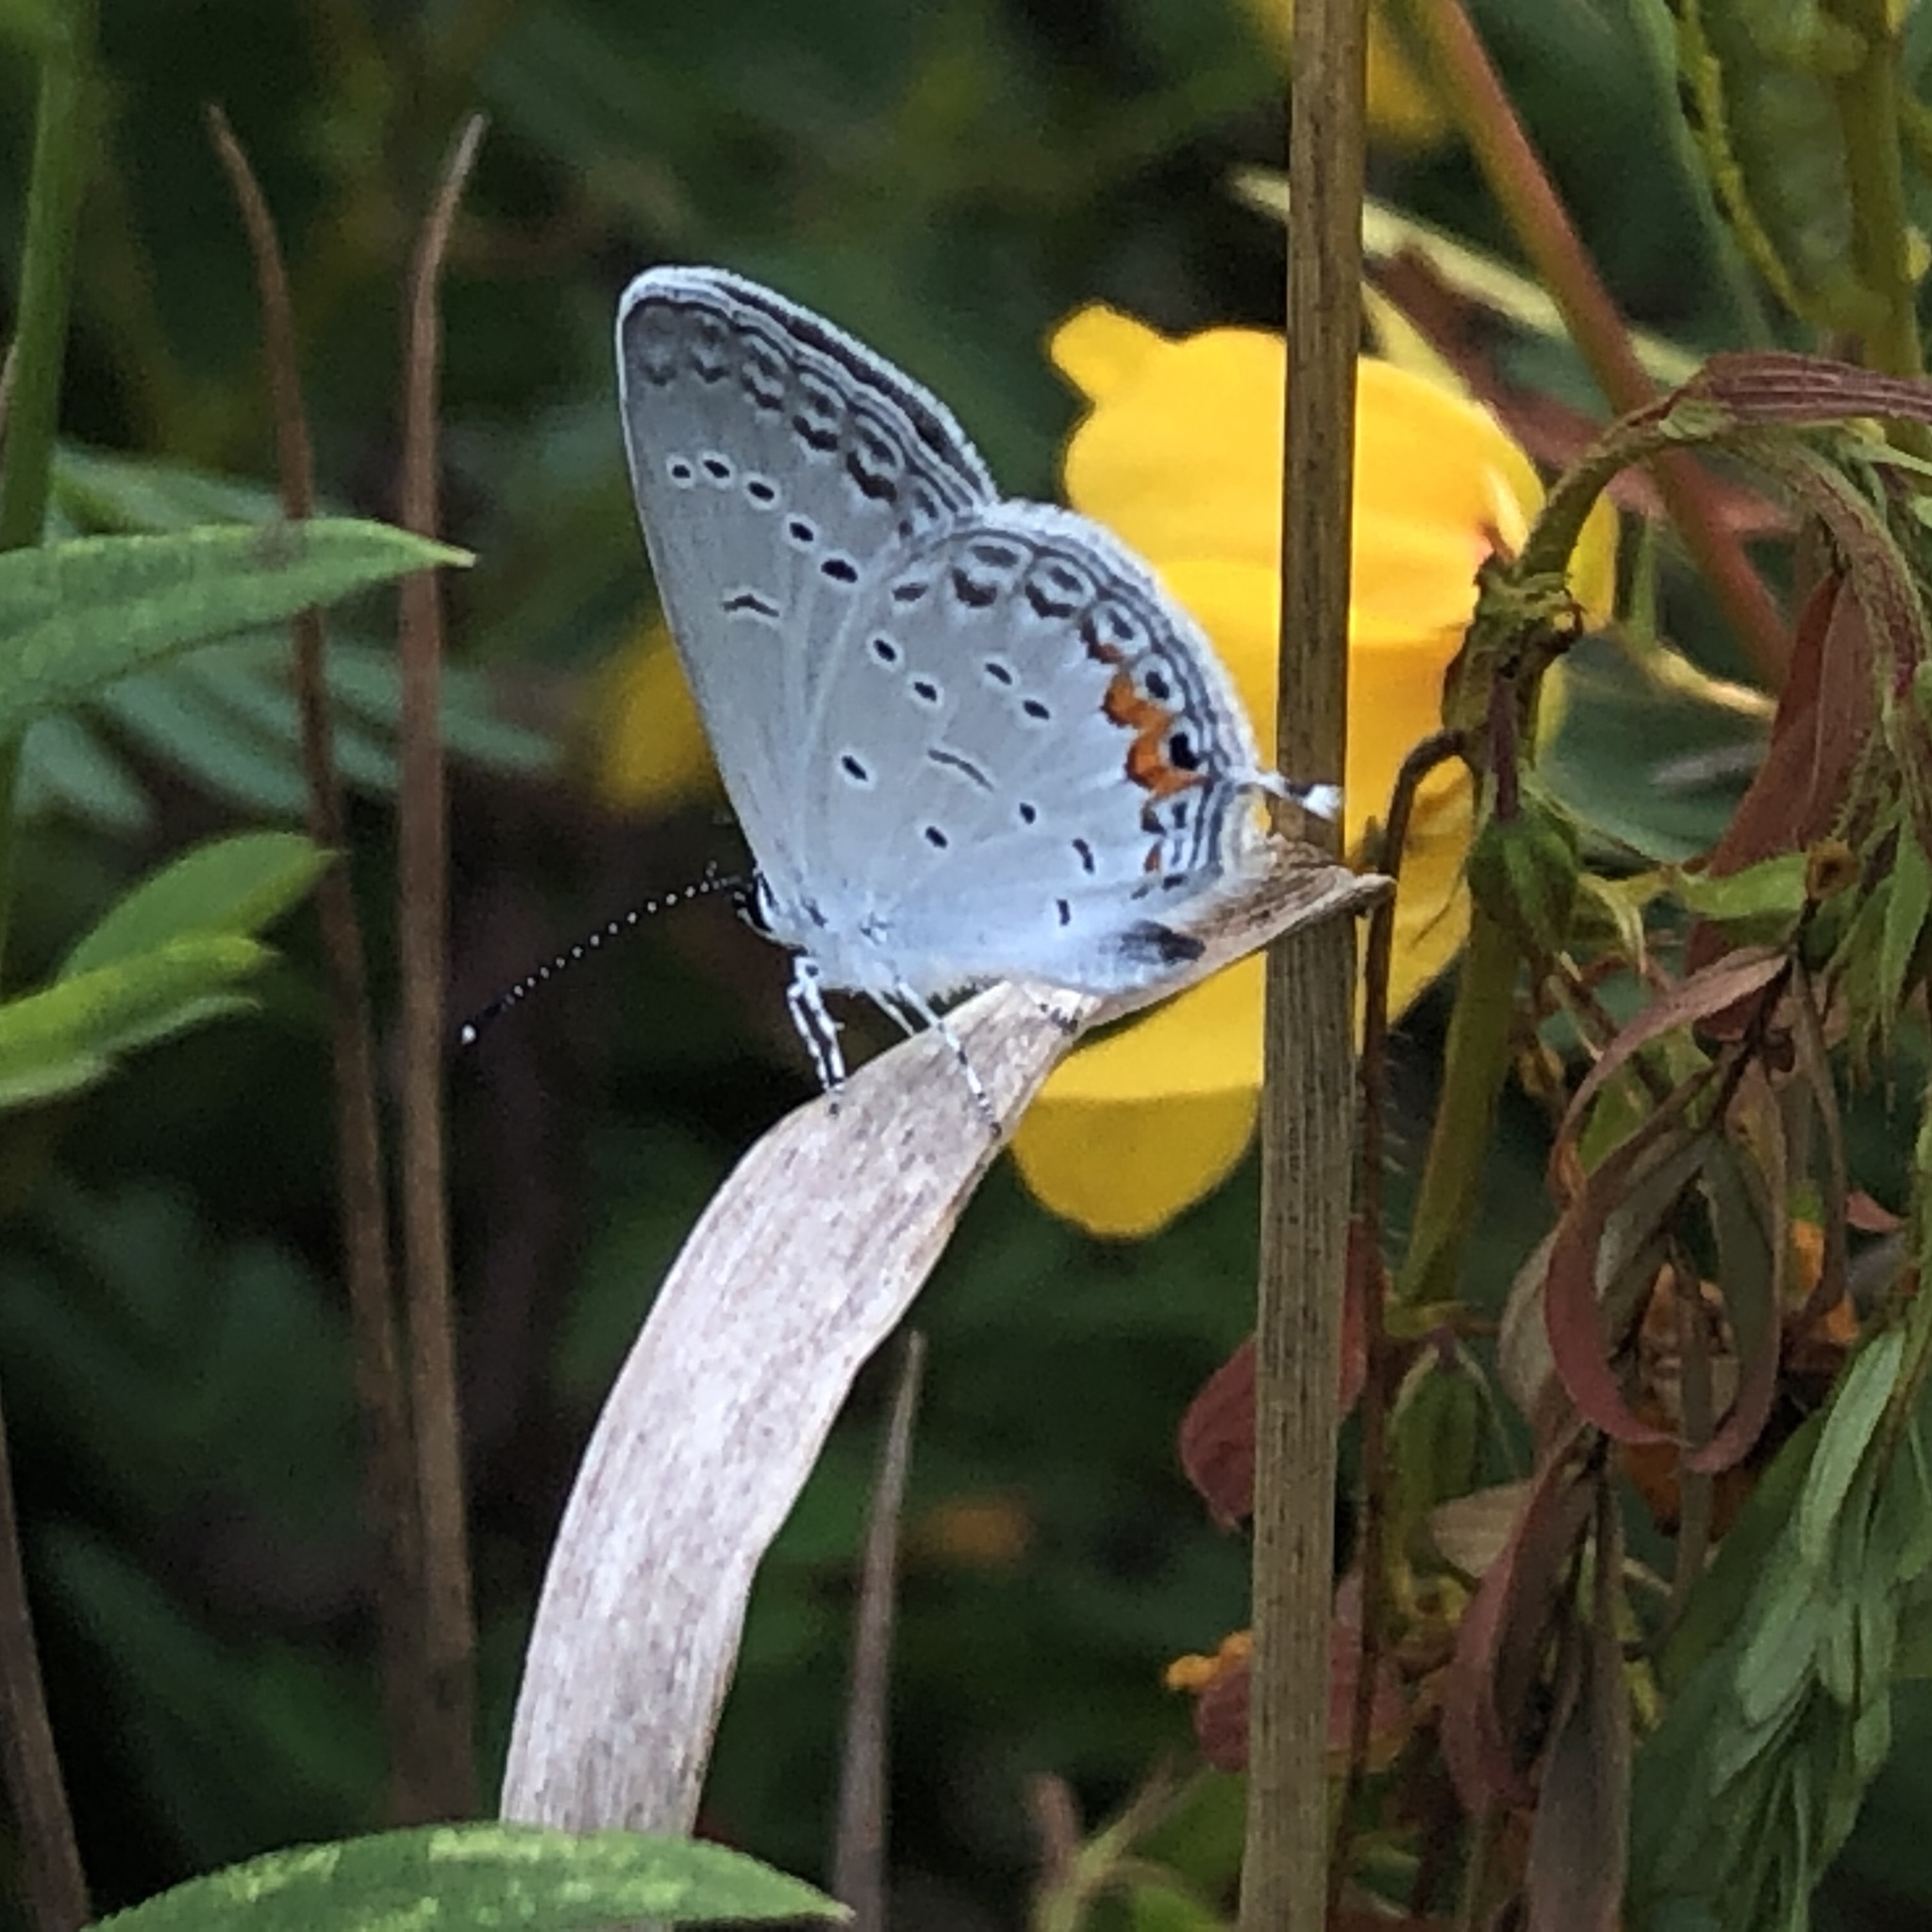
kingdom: Animalia
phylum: Arthropoda
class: Insecta
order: Lepidoptera
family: Lycaenidae
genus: Elkalyce
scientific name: Elkalyce comyntas
